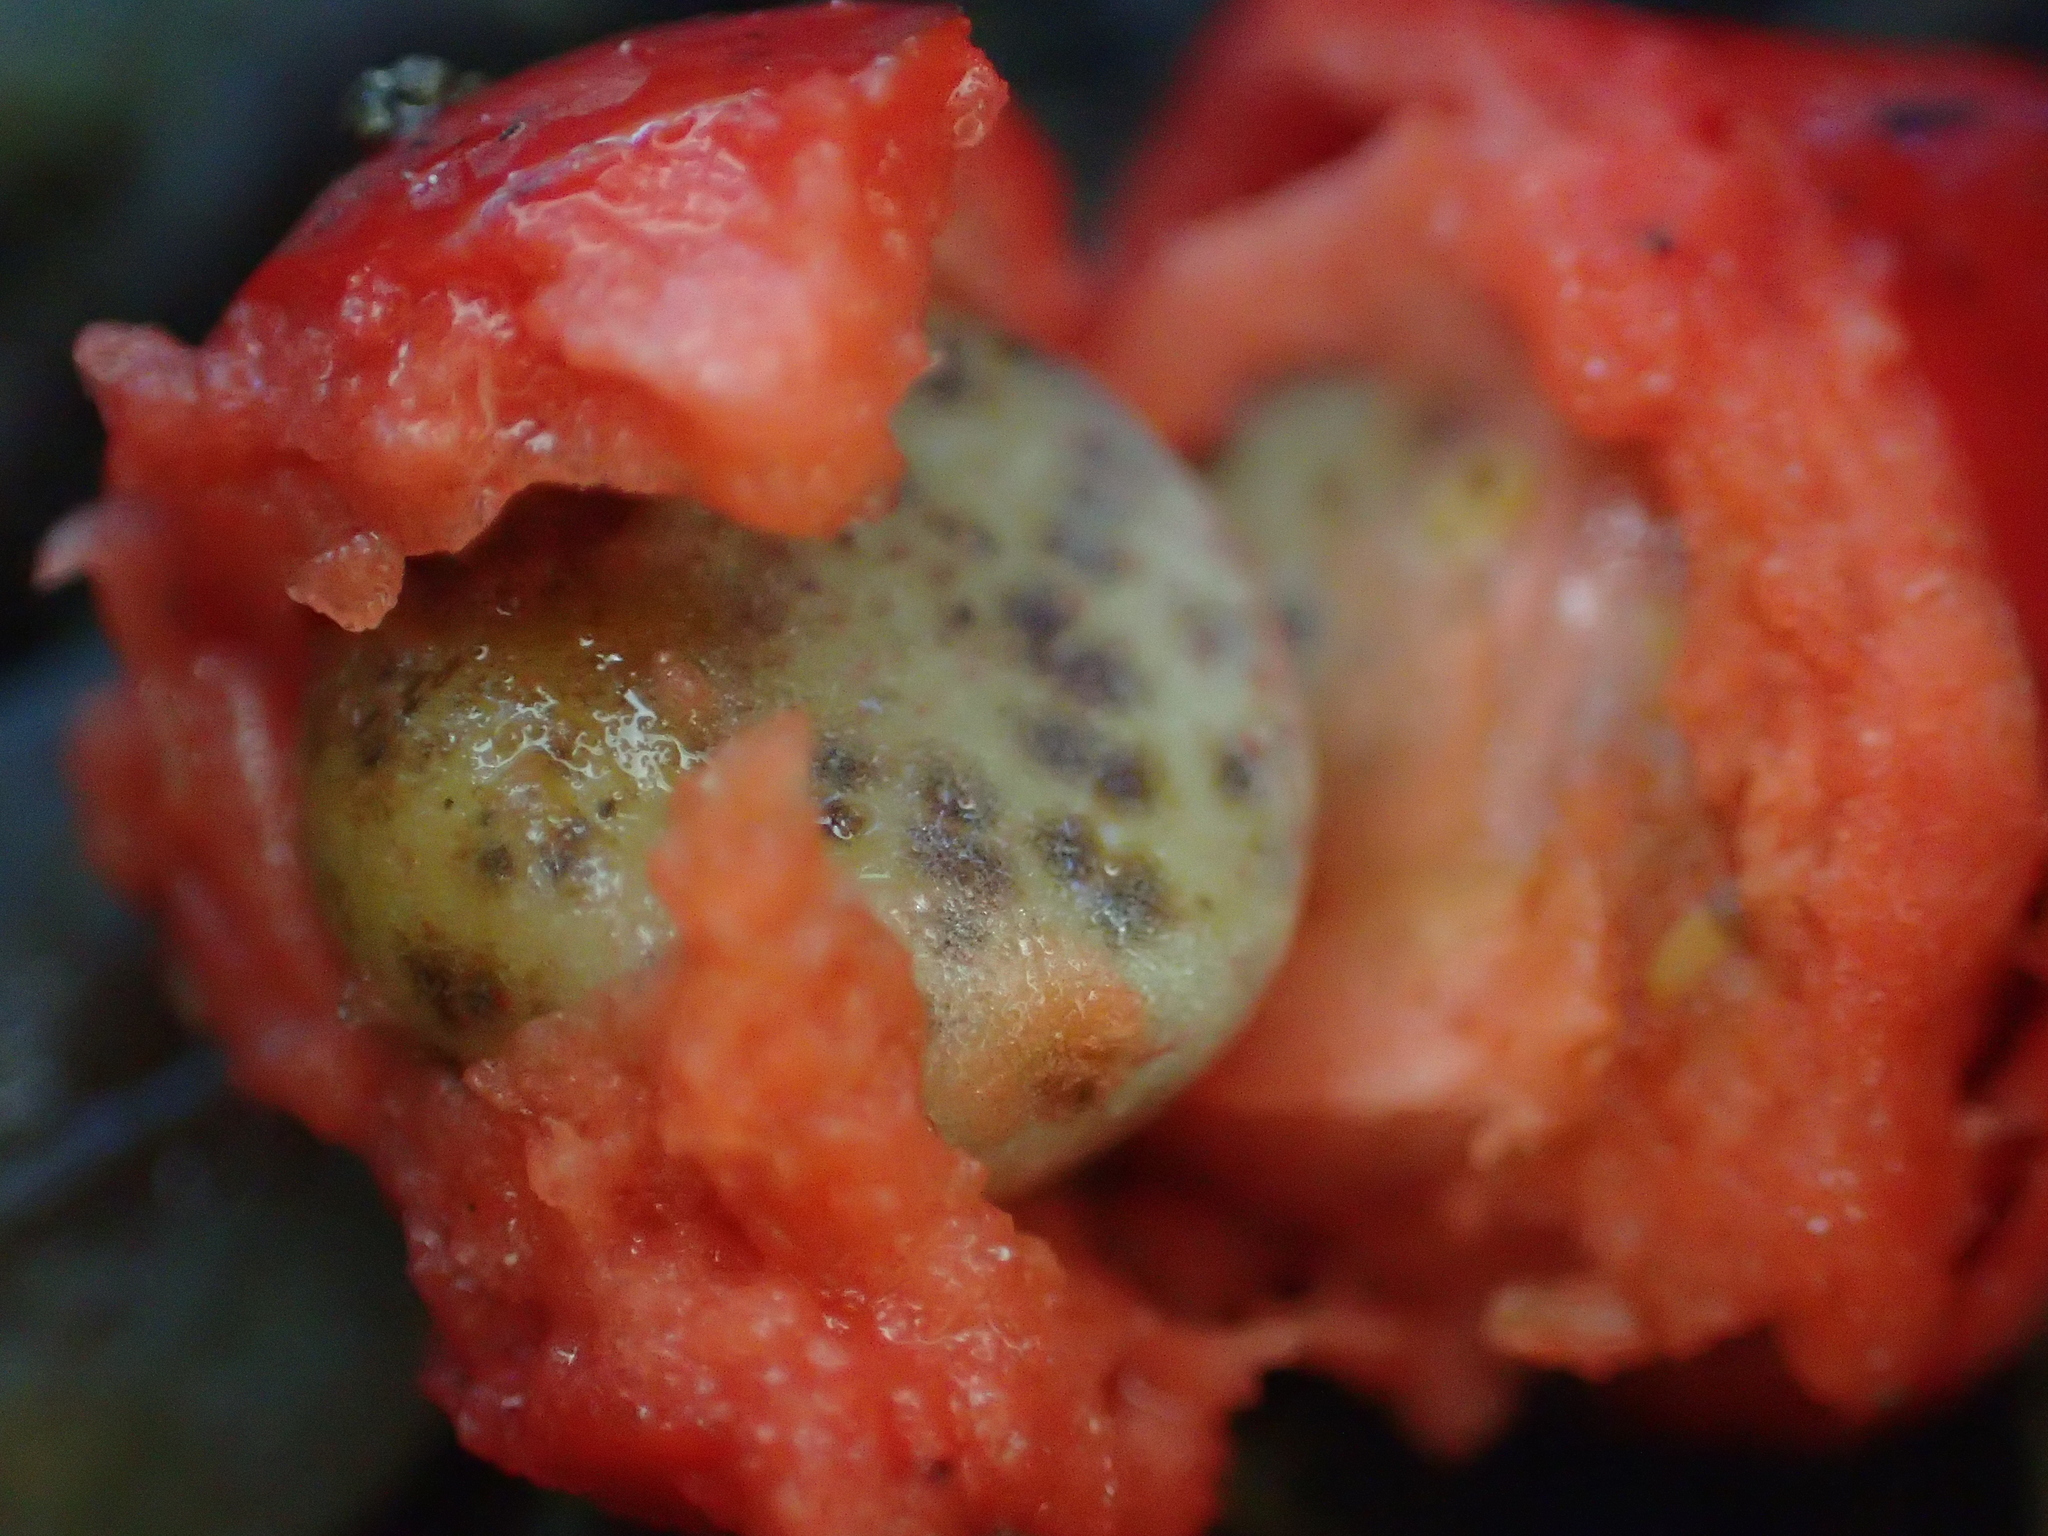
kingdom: Plantae
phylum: Tracheophyta
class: Liliopsida
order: Liliales
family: Ripogonaceae
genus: Ripogonum
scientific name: Ripogonum scandens
